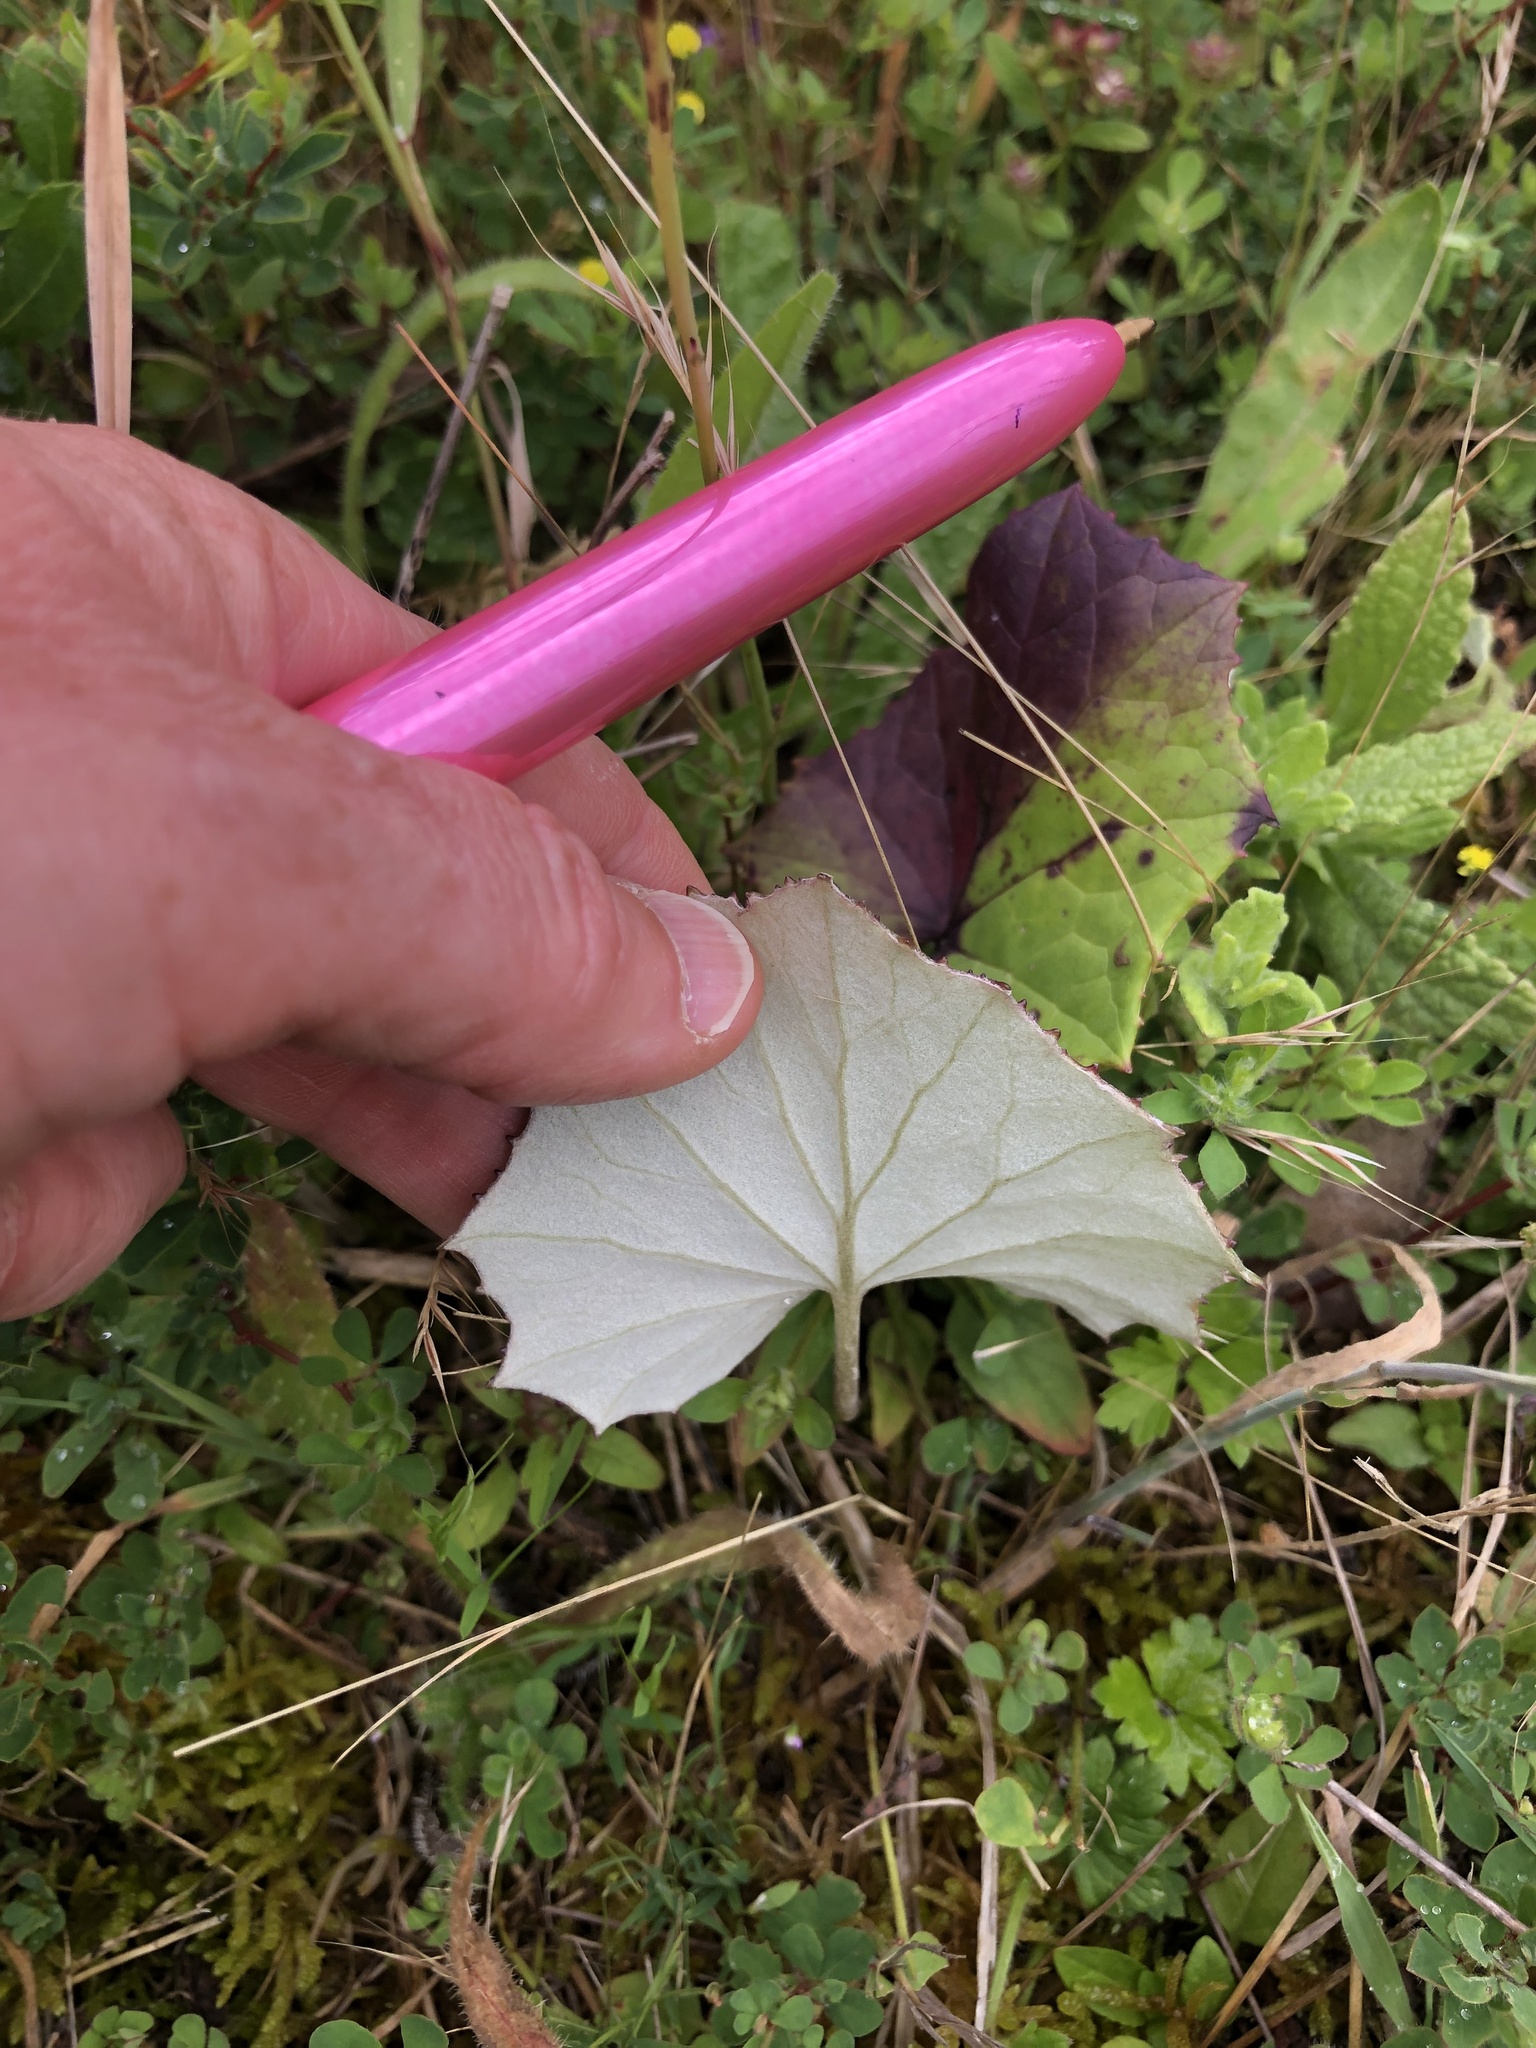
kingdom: Plantae
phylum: Tracheophyta
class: Magnoliopsida
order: Asterales
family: Asteraceae
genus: Tussilago
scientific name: Tussilago farfara
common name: Coltsfoot
